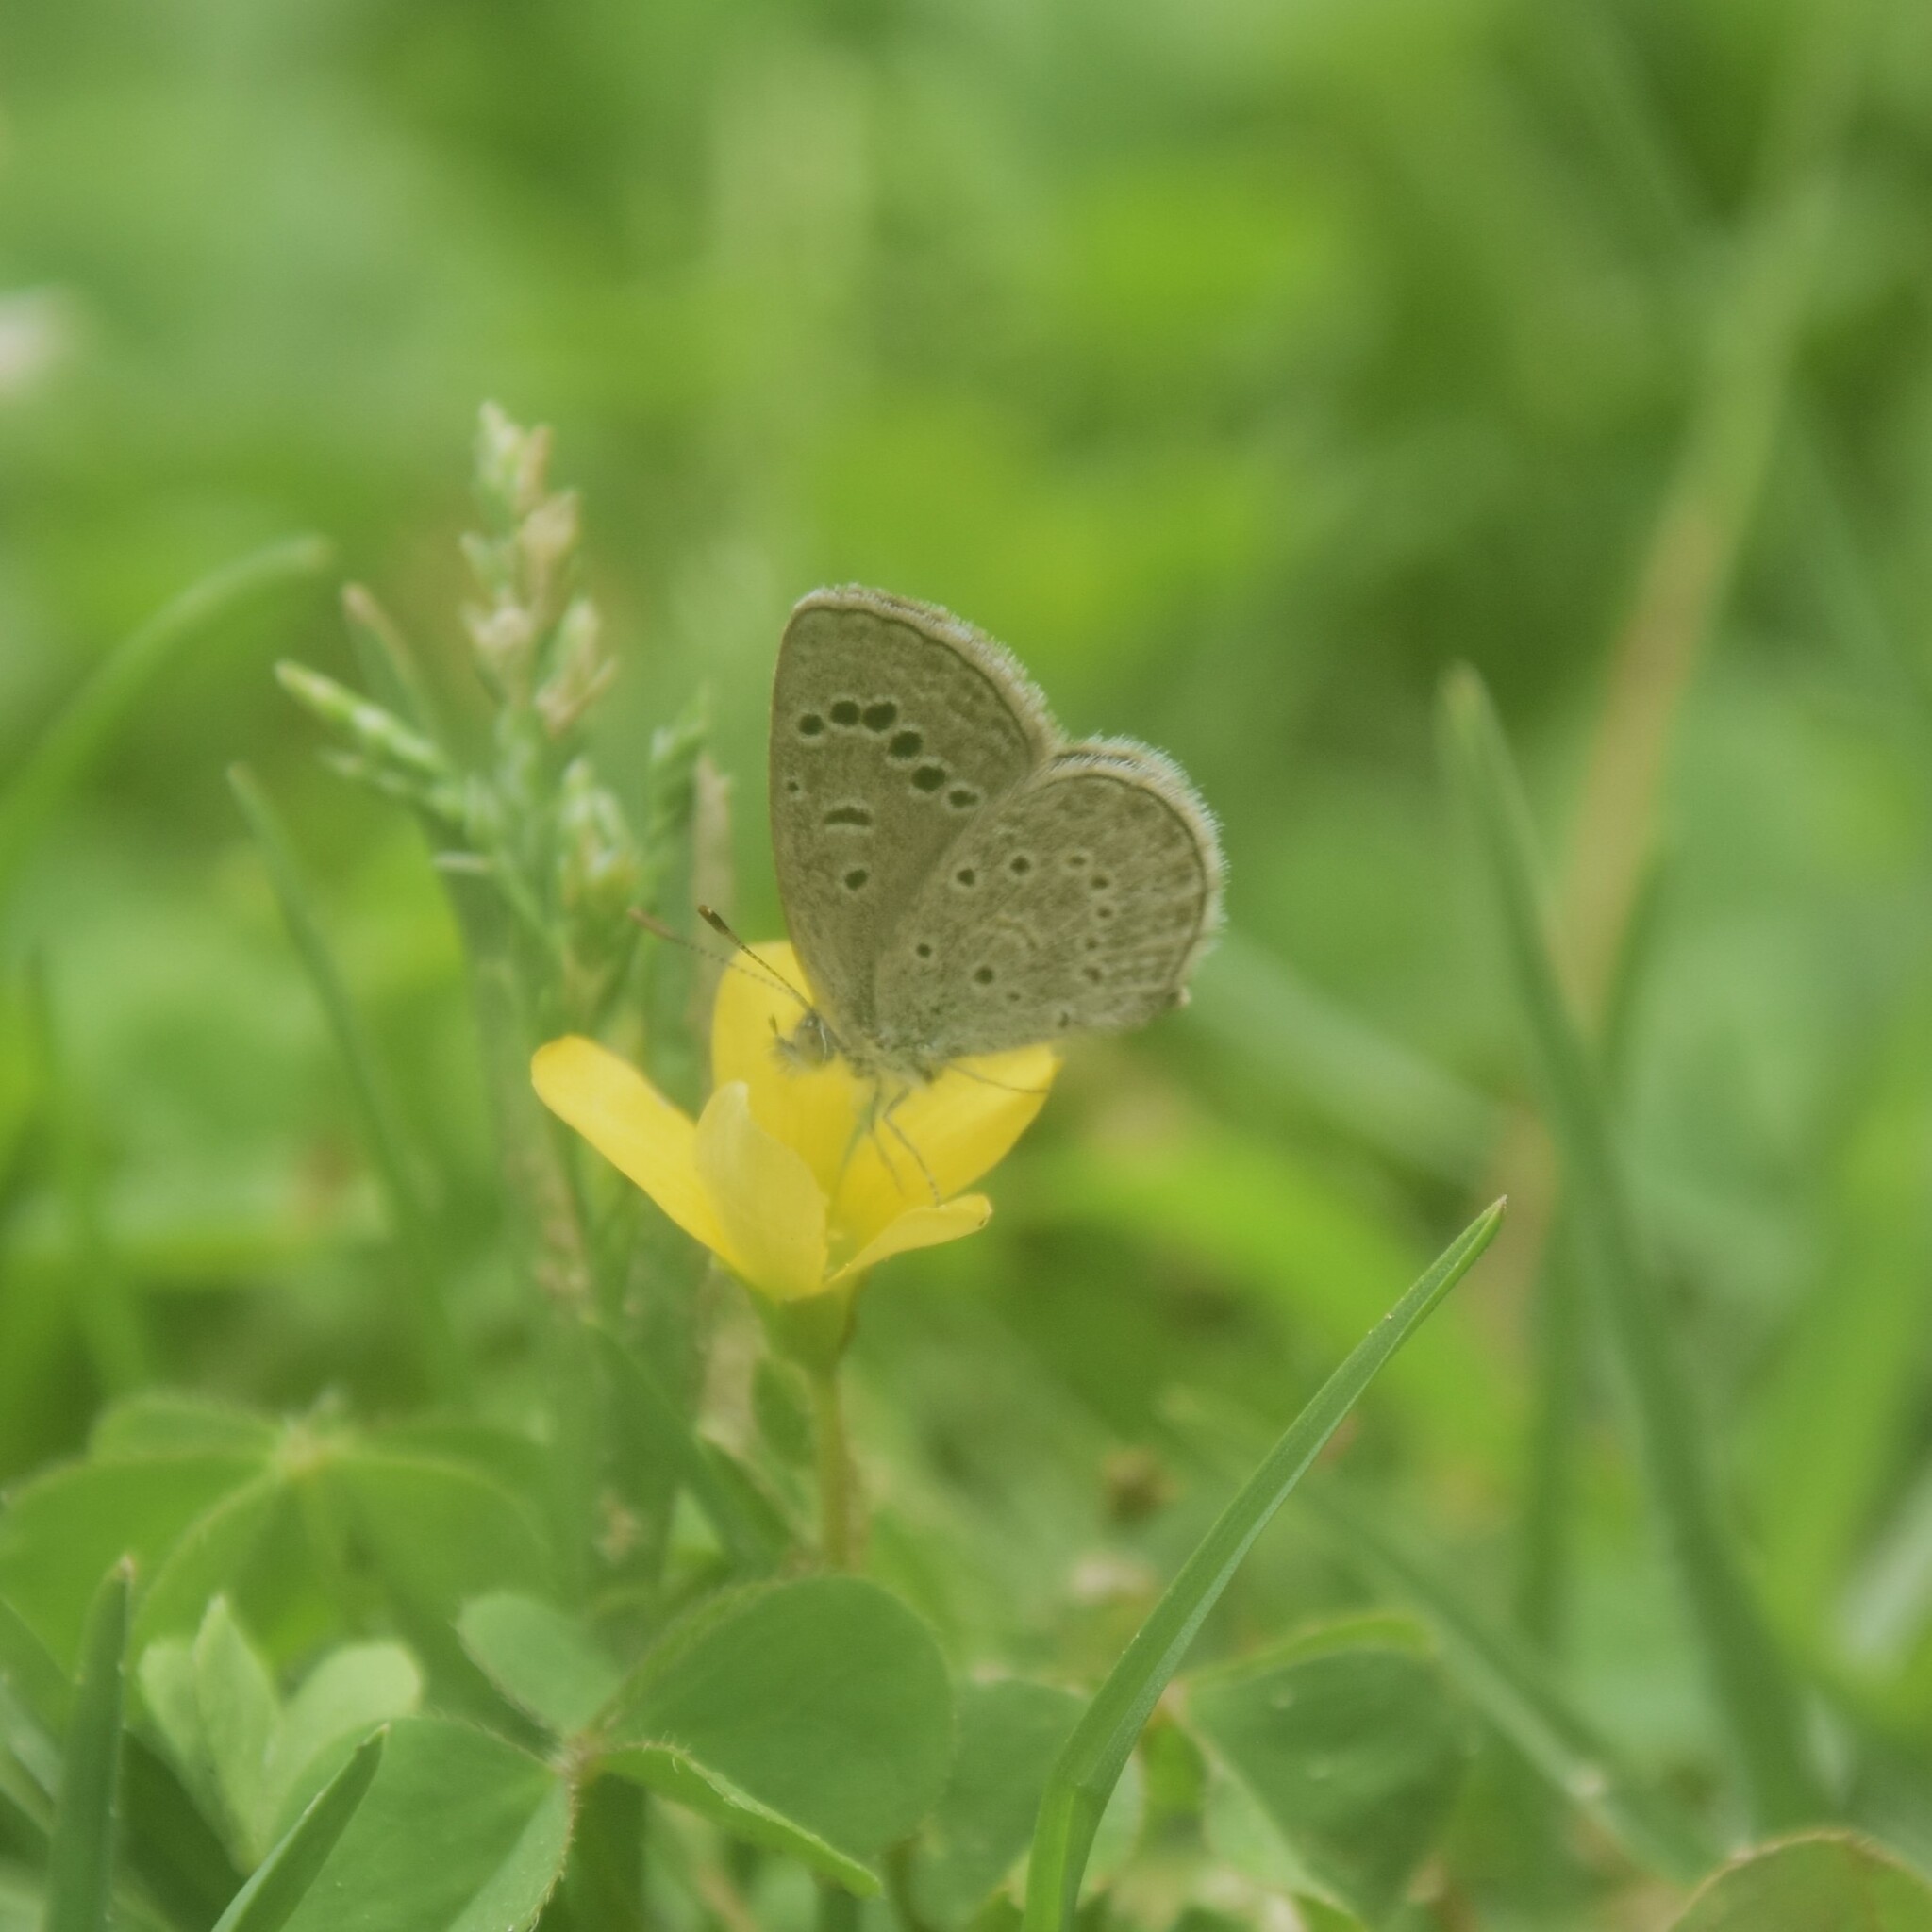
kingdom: Animalia
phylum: Arthropoda
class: Insecta
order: Lepidoptera
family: Lycaenidae
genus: Zizeeria
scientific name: Zizeeria karsandra
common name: Dark grass blue
